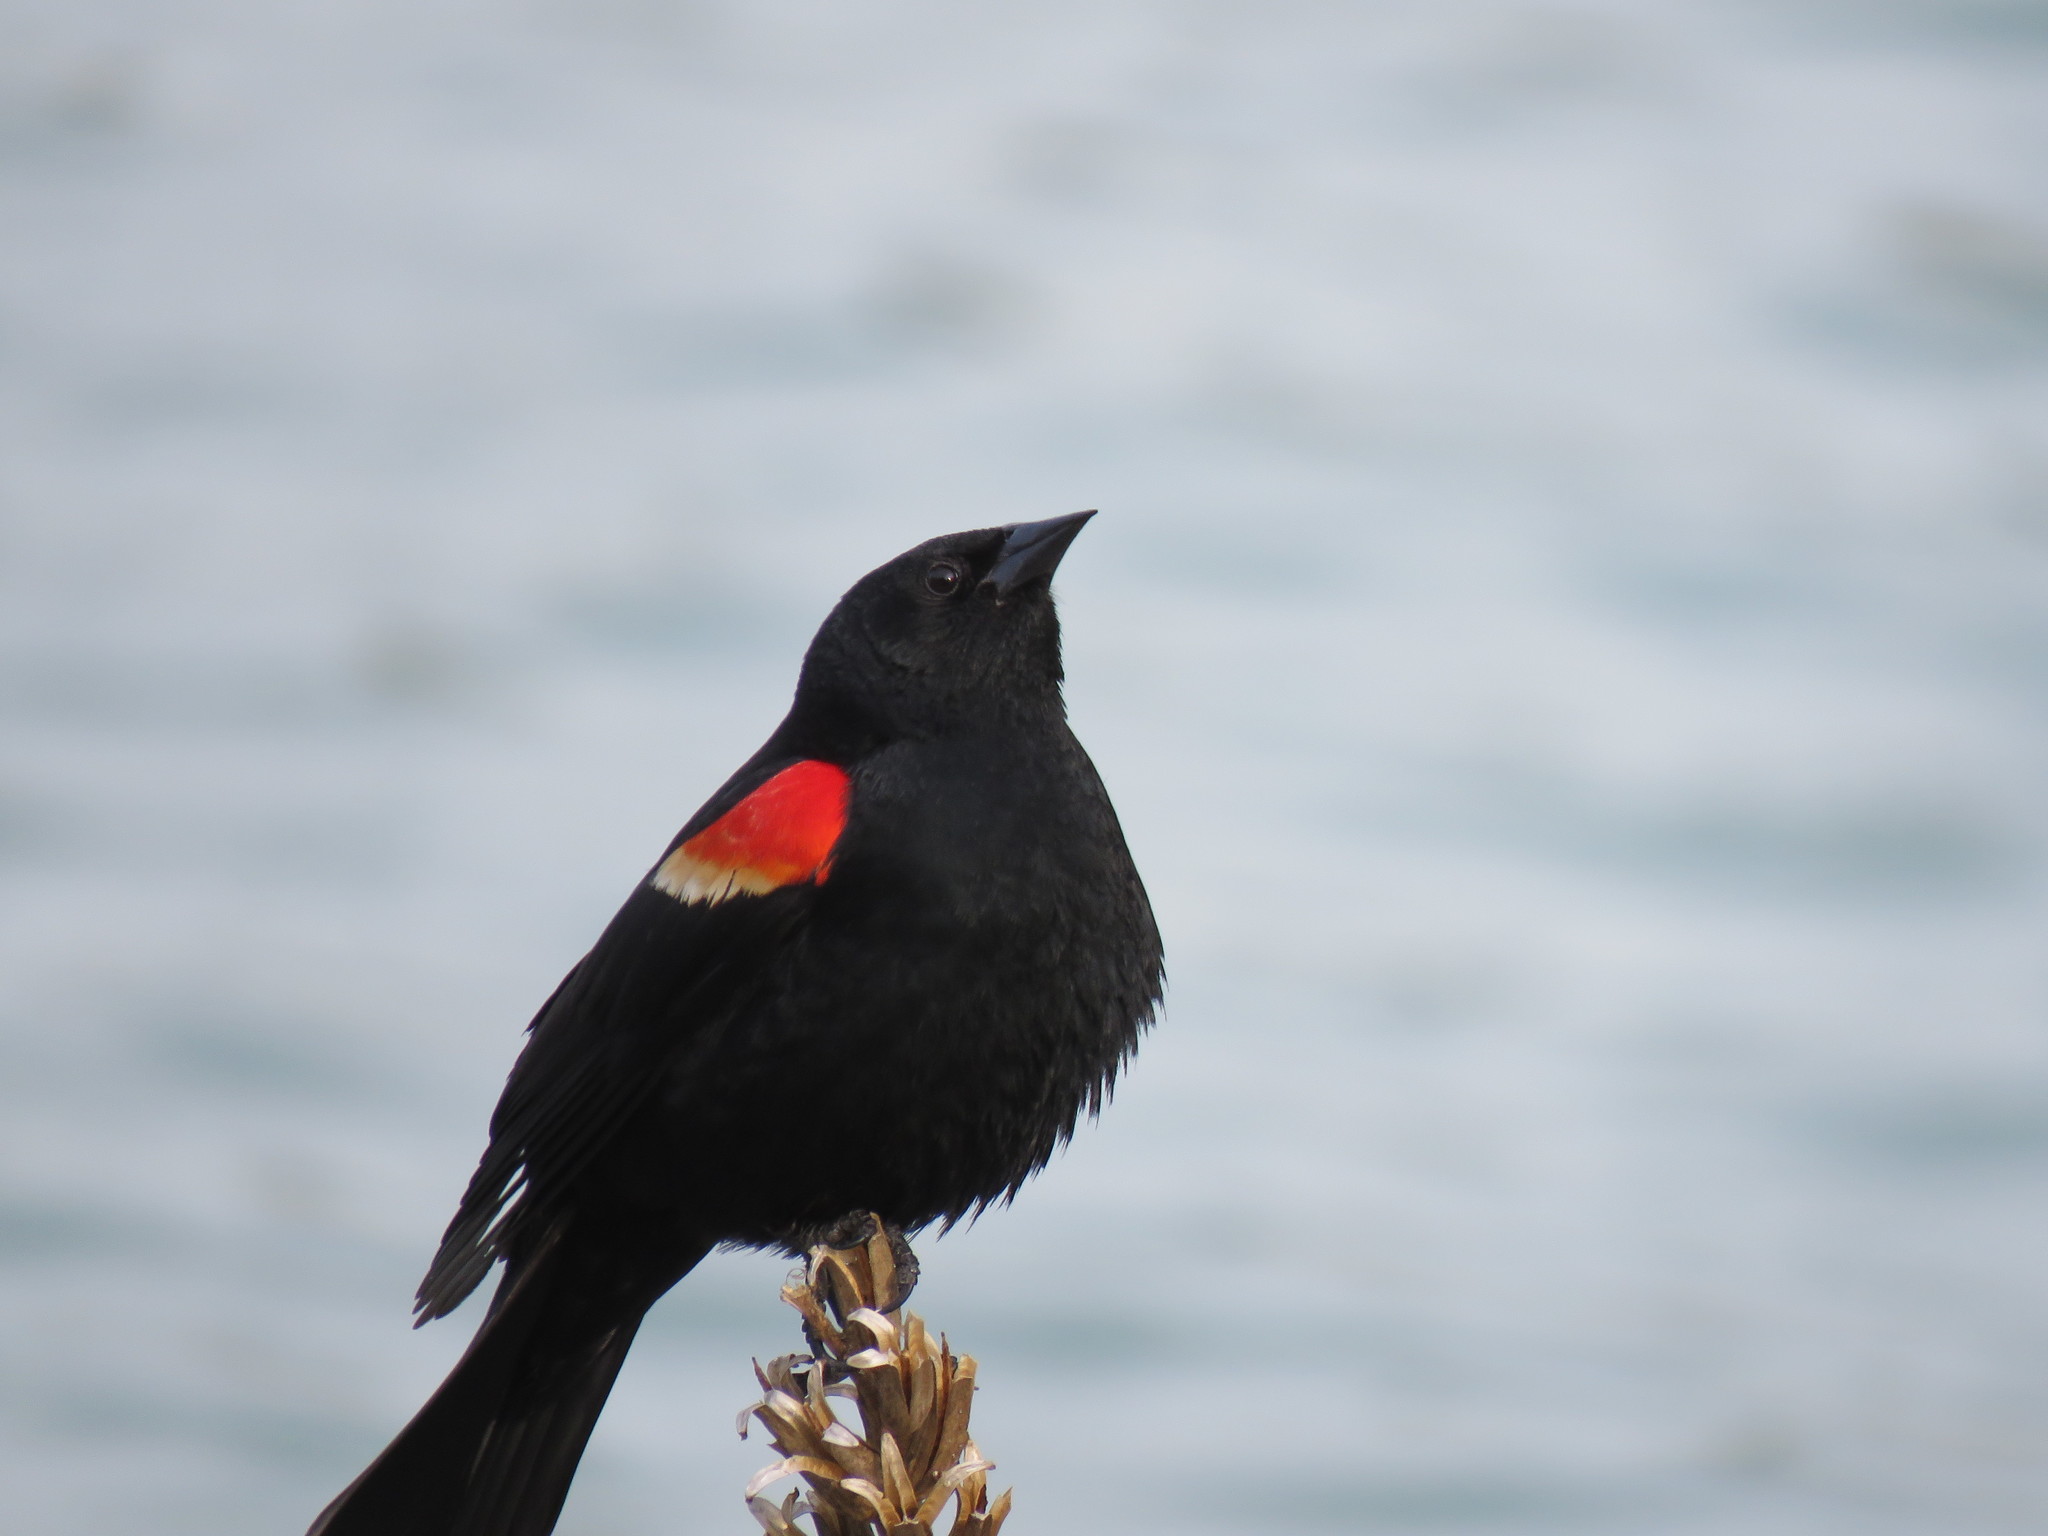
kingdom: Animalia
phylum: Chordata
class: Aves
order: Passeriformes
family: Icteridae
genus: Agelaius
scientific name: Agelaius phoeniceus
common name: Red-winged blackbird
